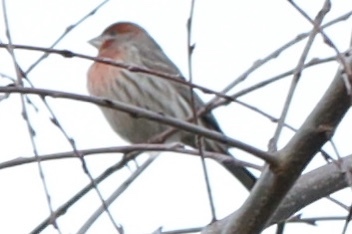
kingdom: Animalia
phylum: Chordata
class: Aves
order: Passeriformes
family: Fringillidae
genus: Haemorhous
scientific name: Haemorhous mexicanus
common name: House finch
